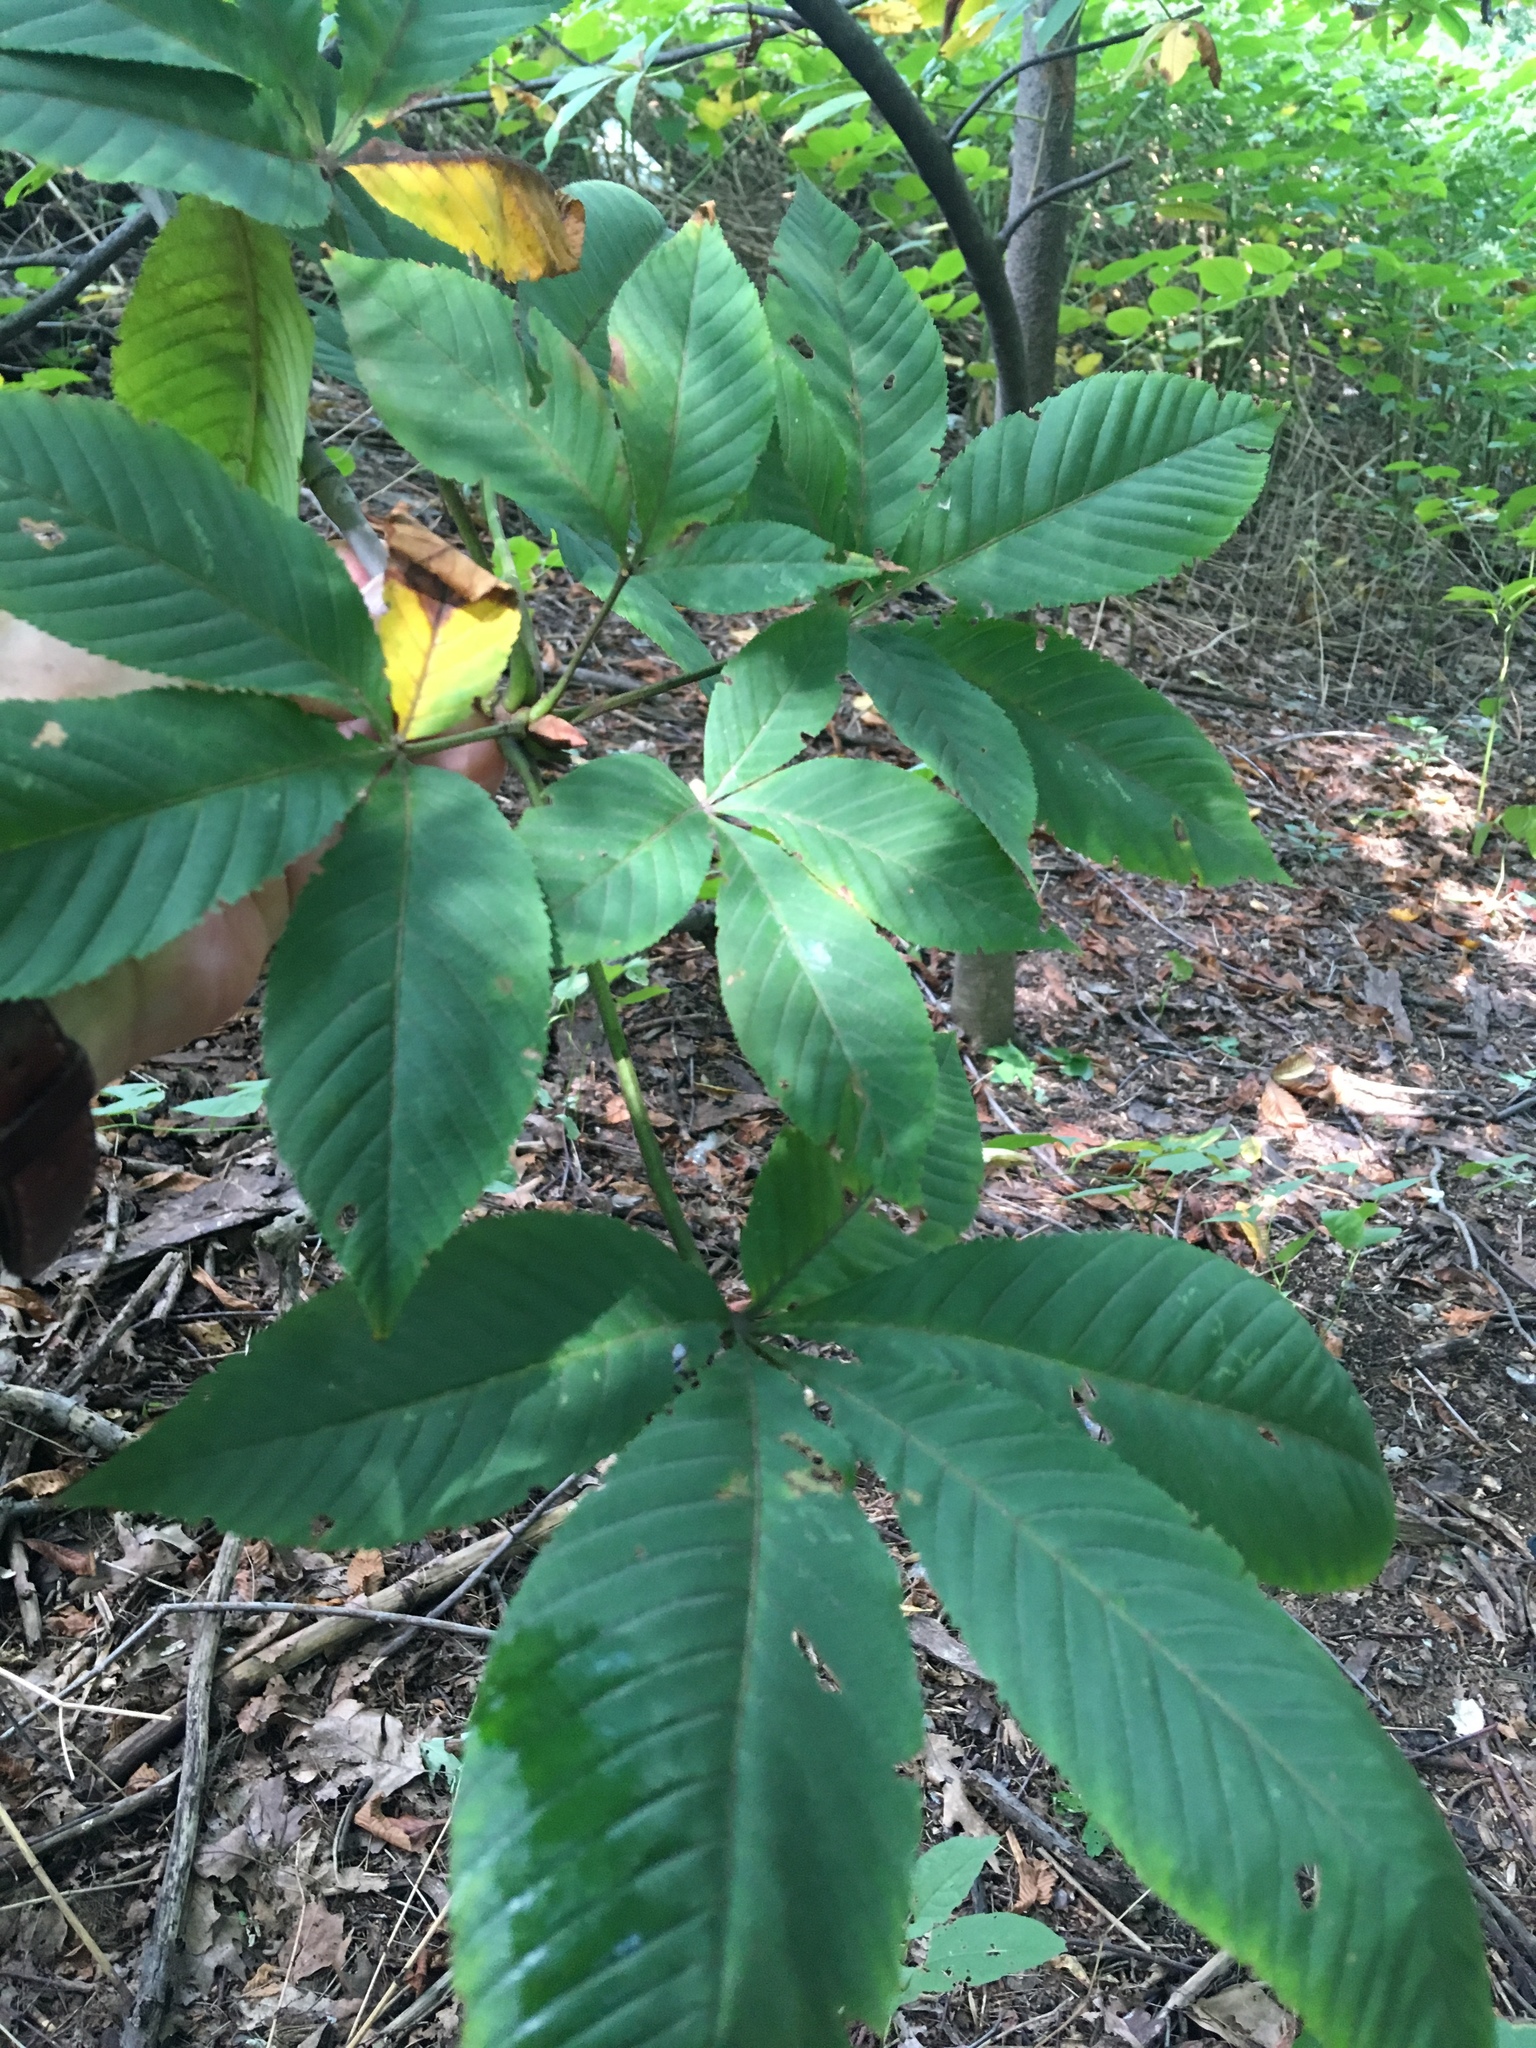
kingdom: Plantae
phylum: Tracheophyta
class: Magnoliopsida
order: Sapindales
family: Sapindaceae
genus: Aesculus
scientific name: Aesculus flava
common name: Yellow buckeye
